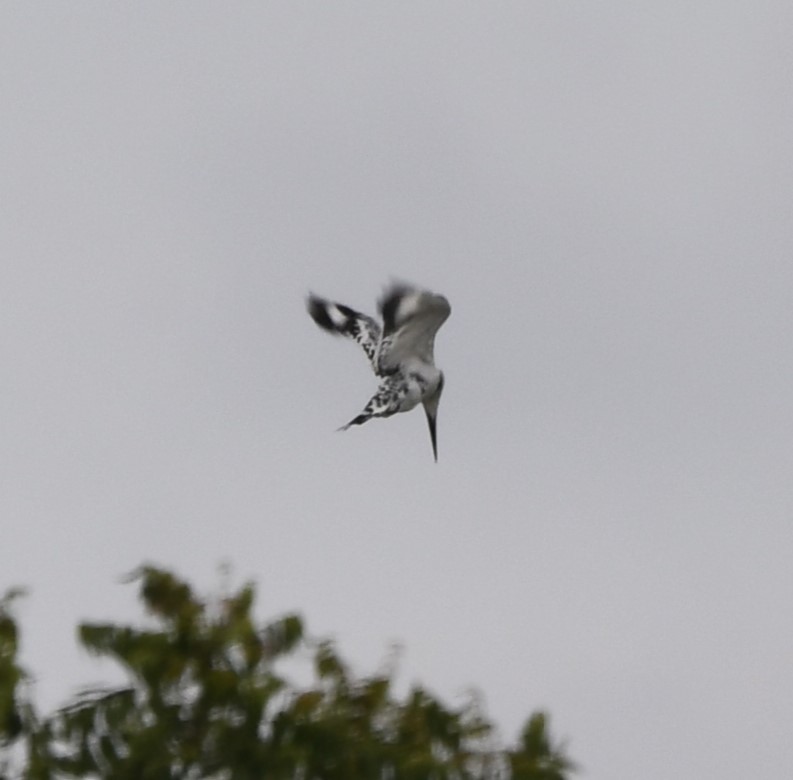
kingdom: Animalia
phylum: Chordata
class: Aves
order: Coraciiformes
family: Alcedinidae
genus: Ceryle
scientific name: Ceryle rudis
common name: Pied kingfisher
